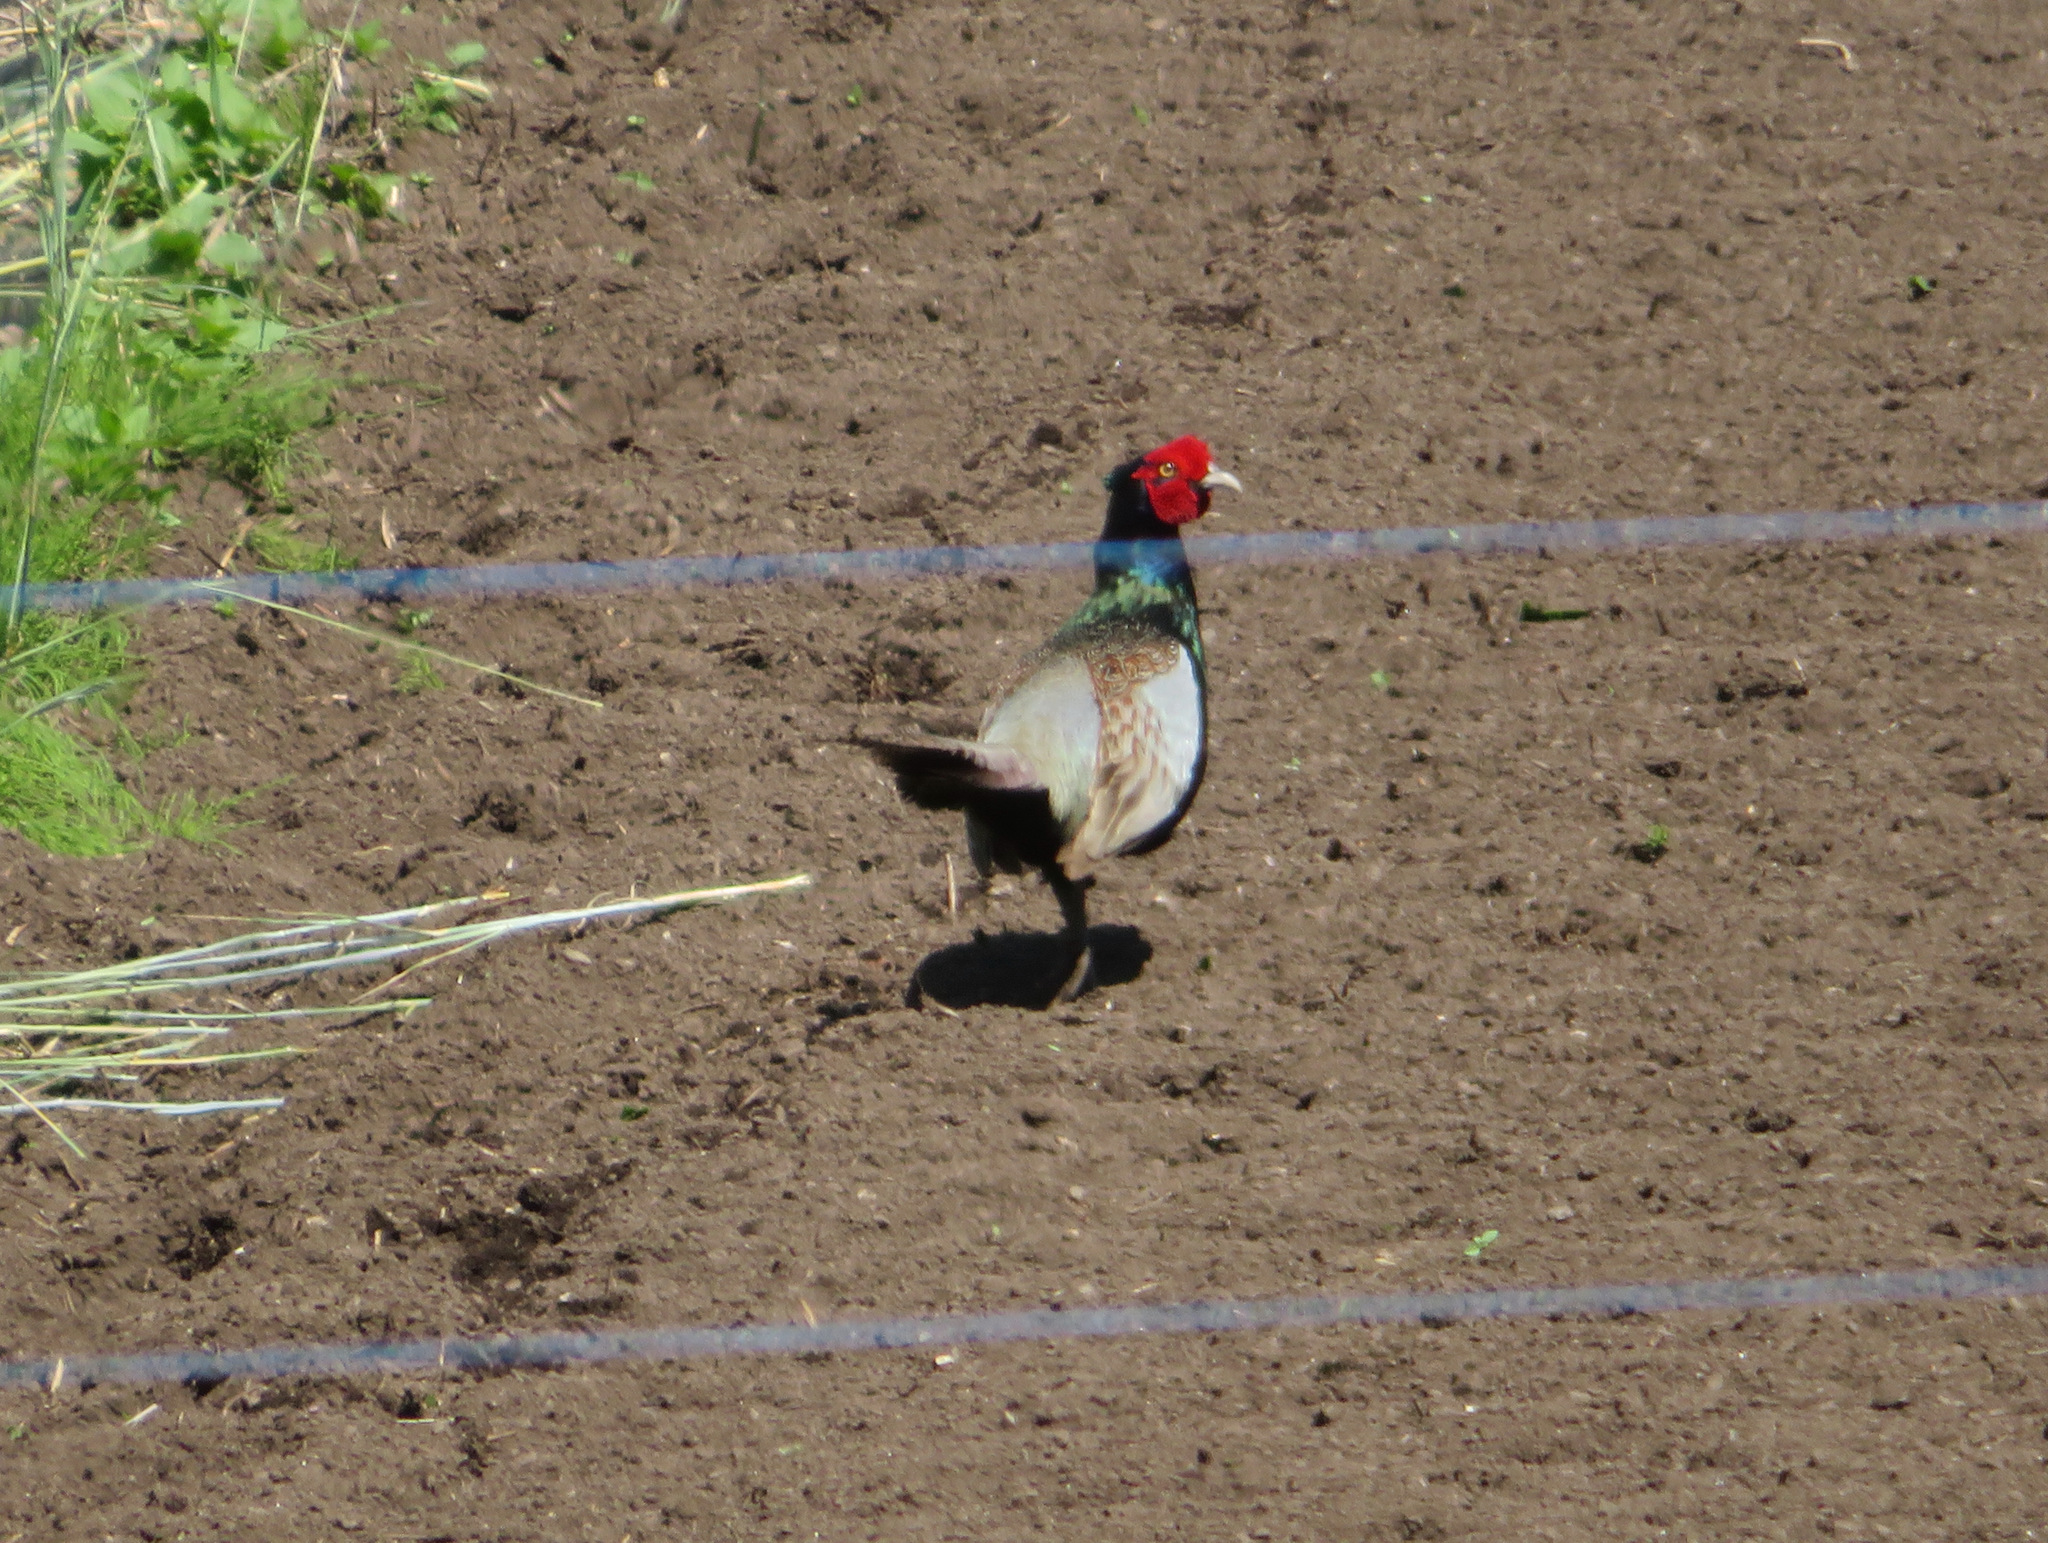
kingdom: Animalia
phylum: Chordata
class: Aves
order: Galliformes
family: Phasianidae
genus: Phasianus
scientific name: Phasianus versicolor
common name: Green pheasant
